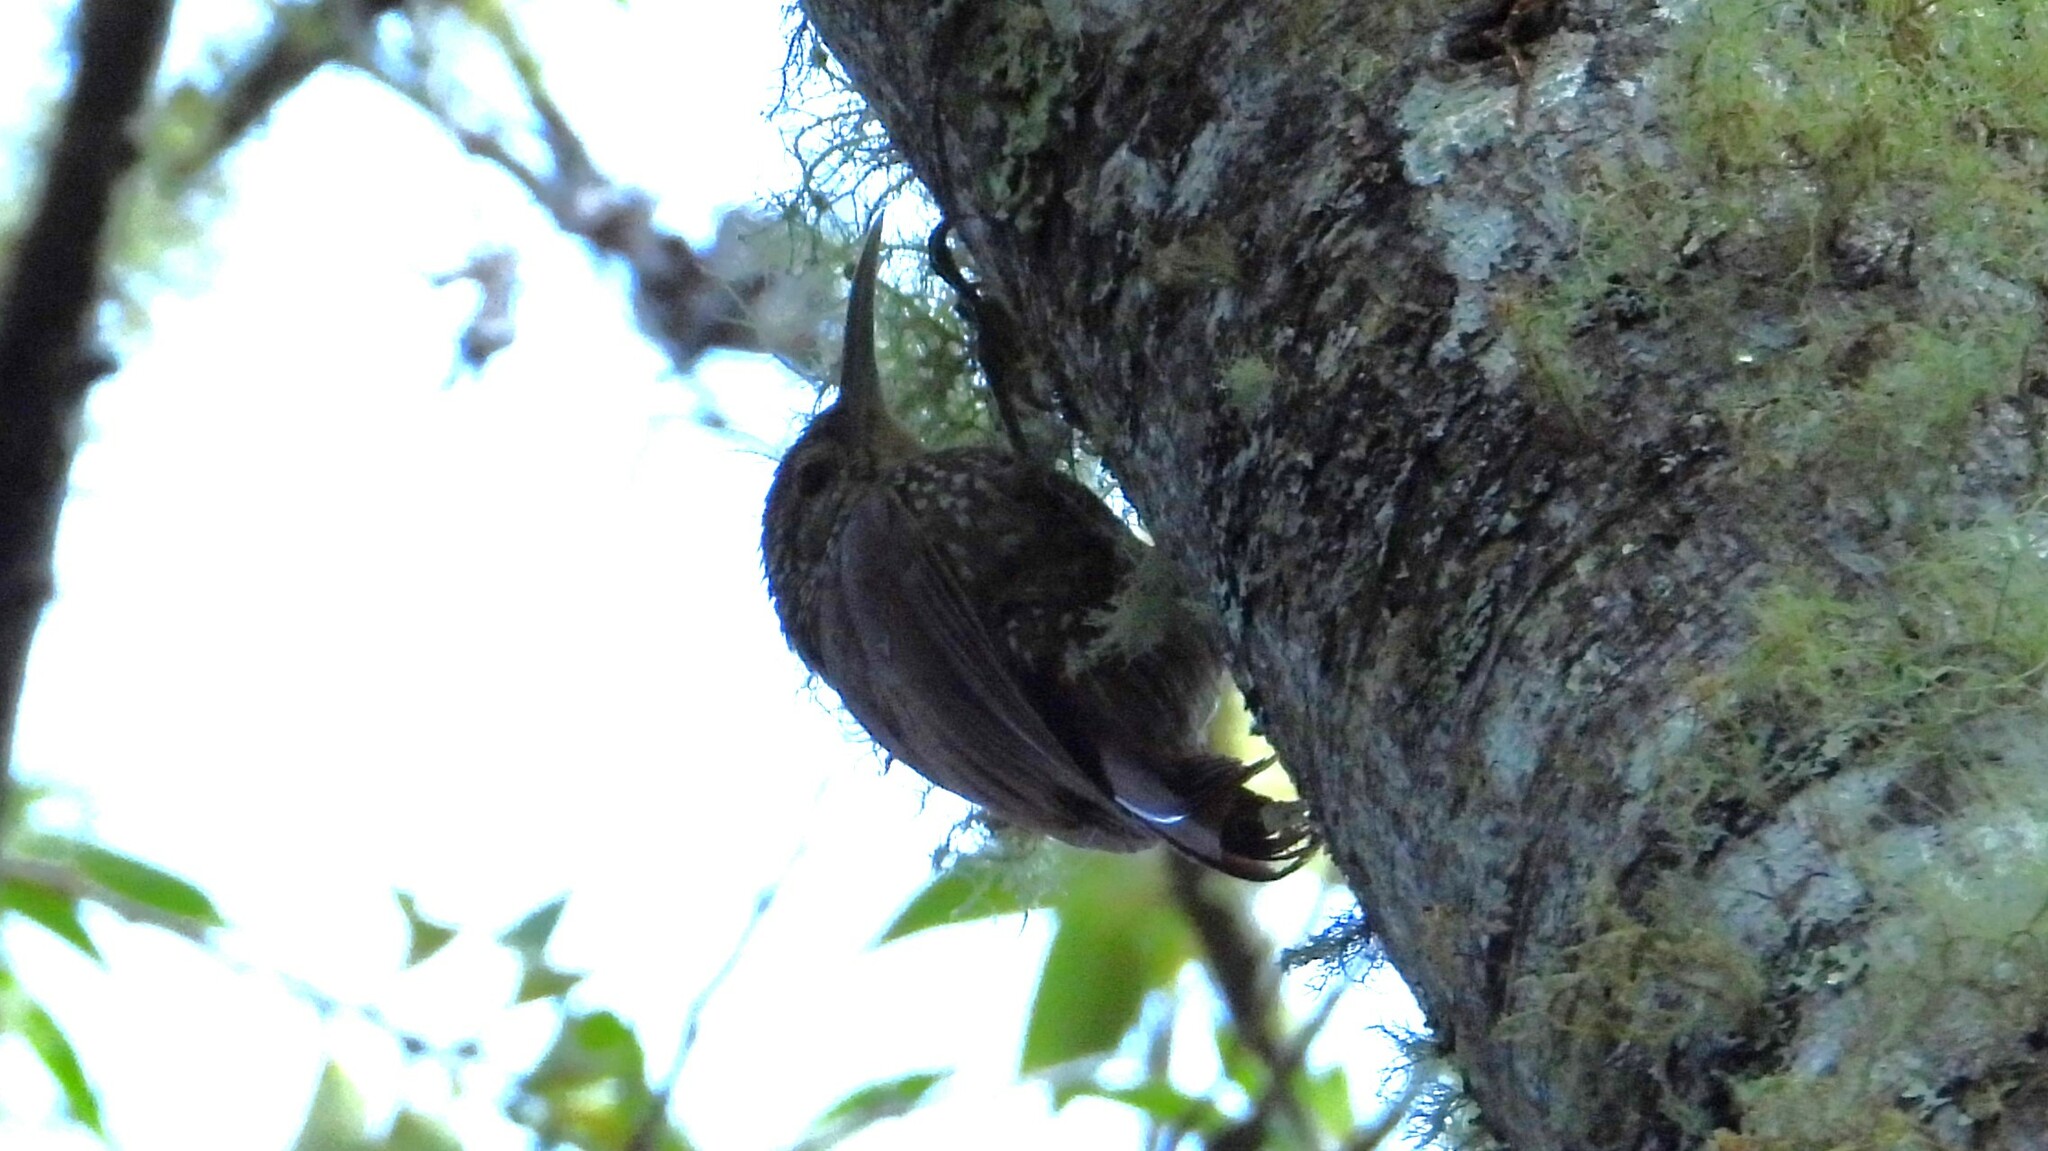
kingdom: Animalia
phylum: Chordata
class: Aves
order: Passeriformes
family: Furnariidae
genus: Lepidocolaptes
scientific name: Lepidocolaptes affinis
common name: Spot-crowned woodcreeper
